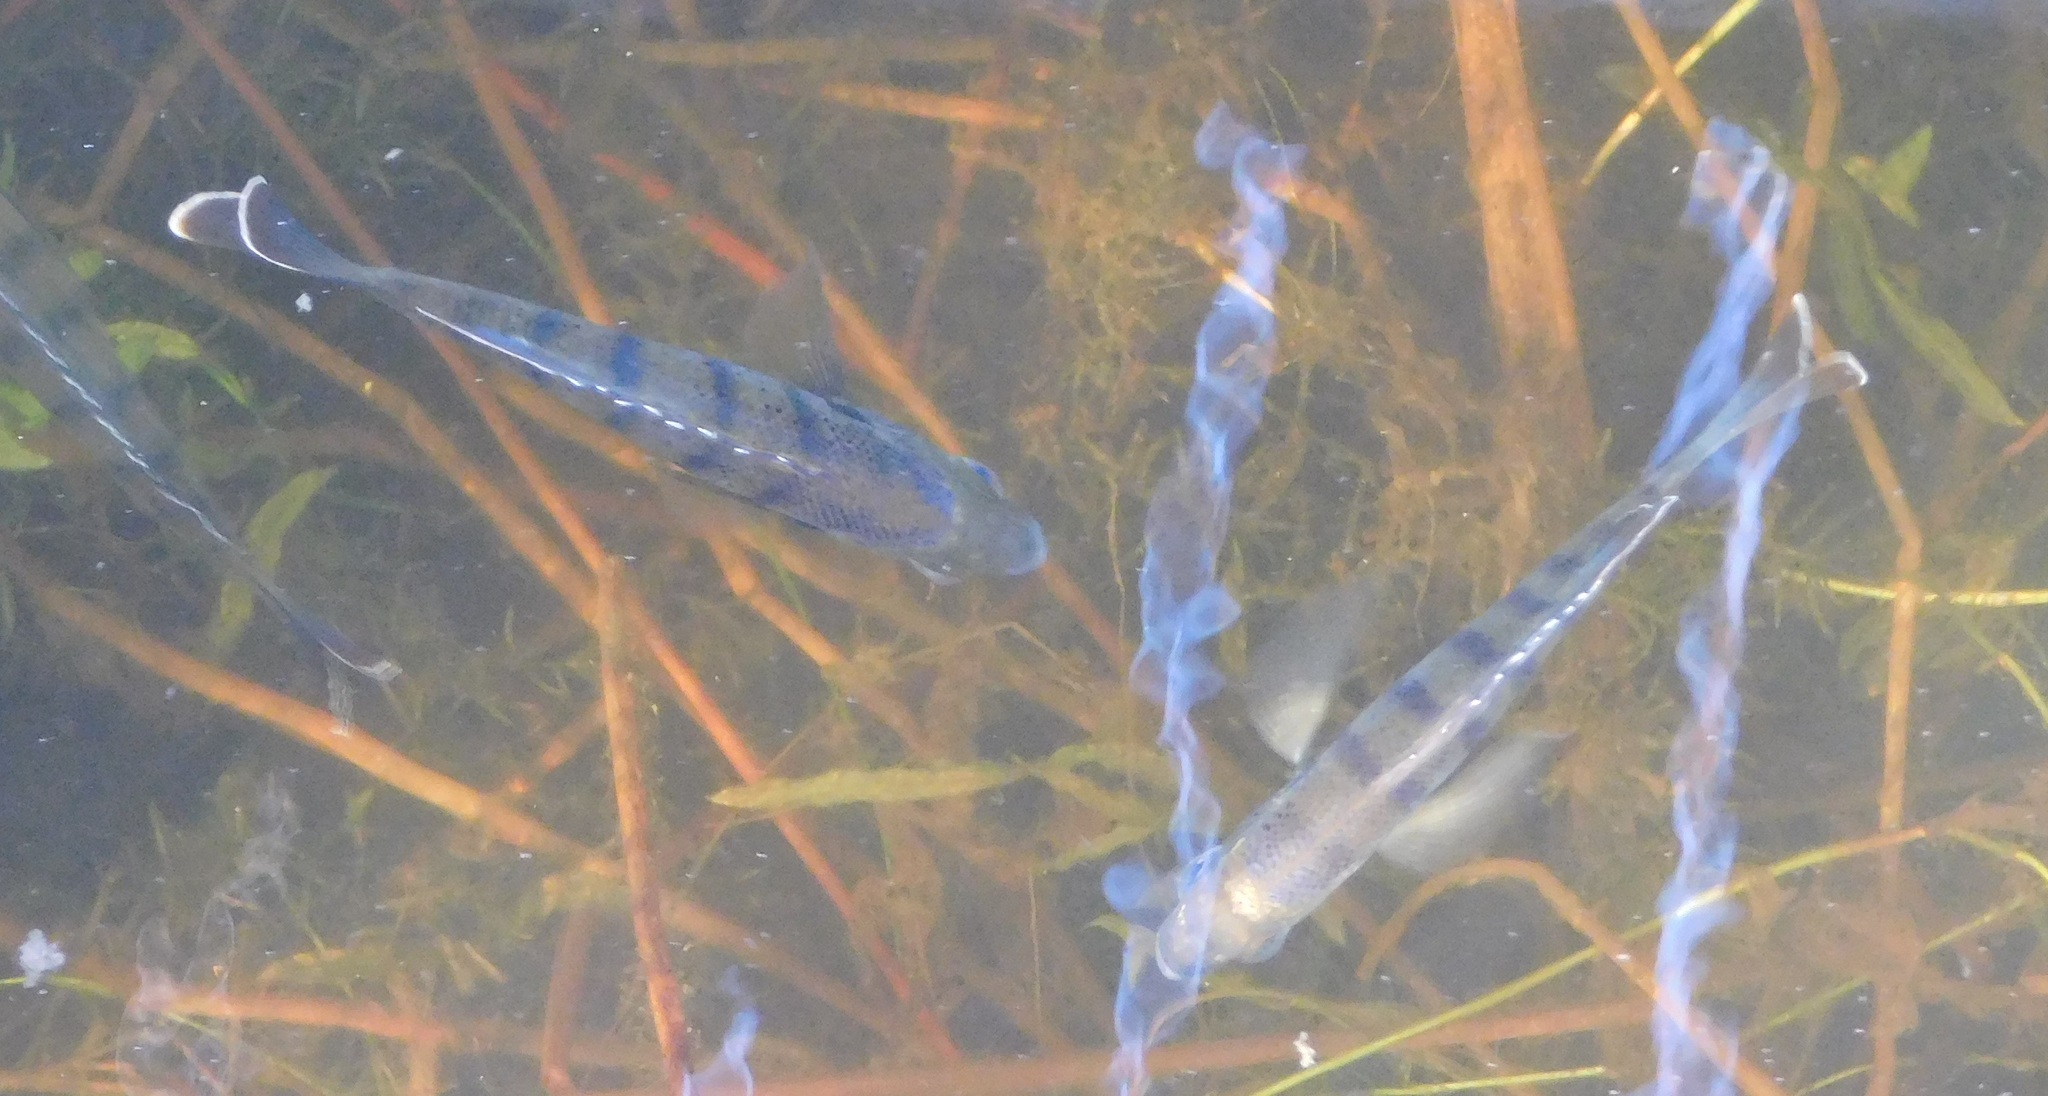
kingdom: Animalia
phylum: Chordata
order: Perciformes
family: Centrarchidae
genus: Lepomis
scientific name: Lepomis macrochirus
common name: Bluegill
